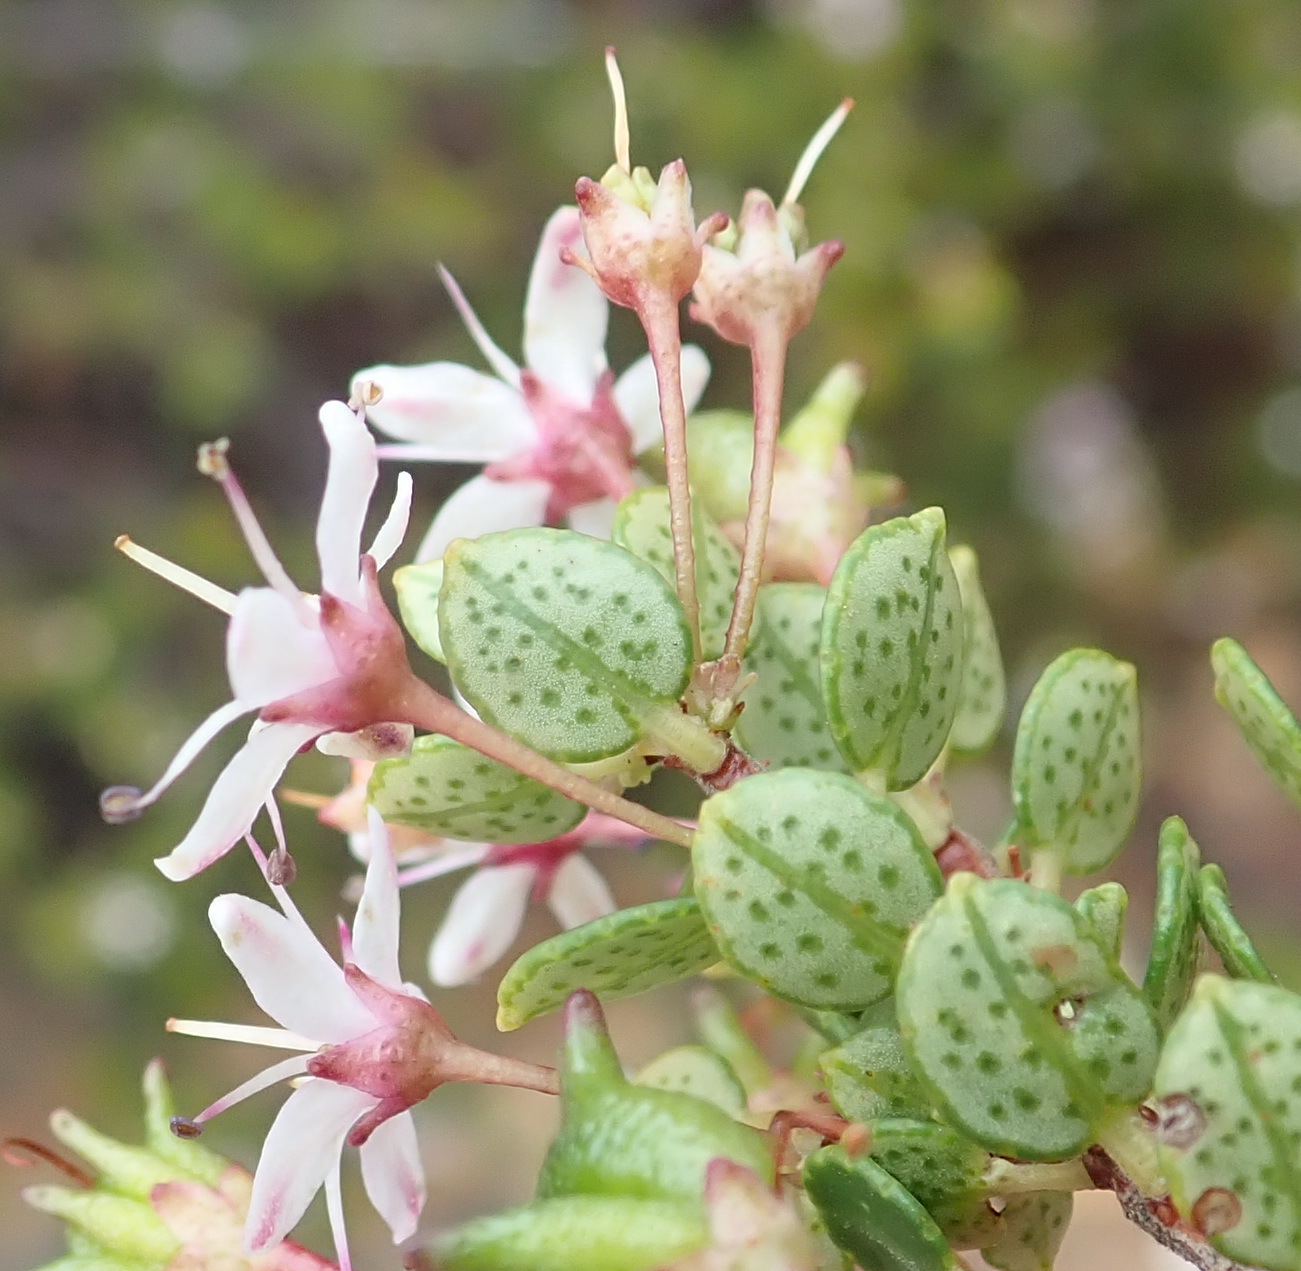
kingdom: Plantae
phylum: Tracheophyta
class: Magnoliopsida
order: Sapindales
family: Rutaceae
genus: Agathosma
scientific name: Agathosma ovata
